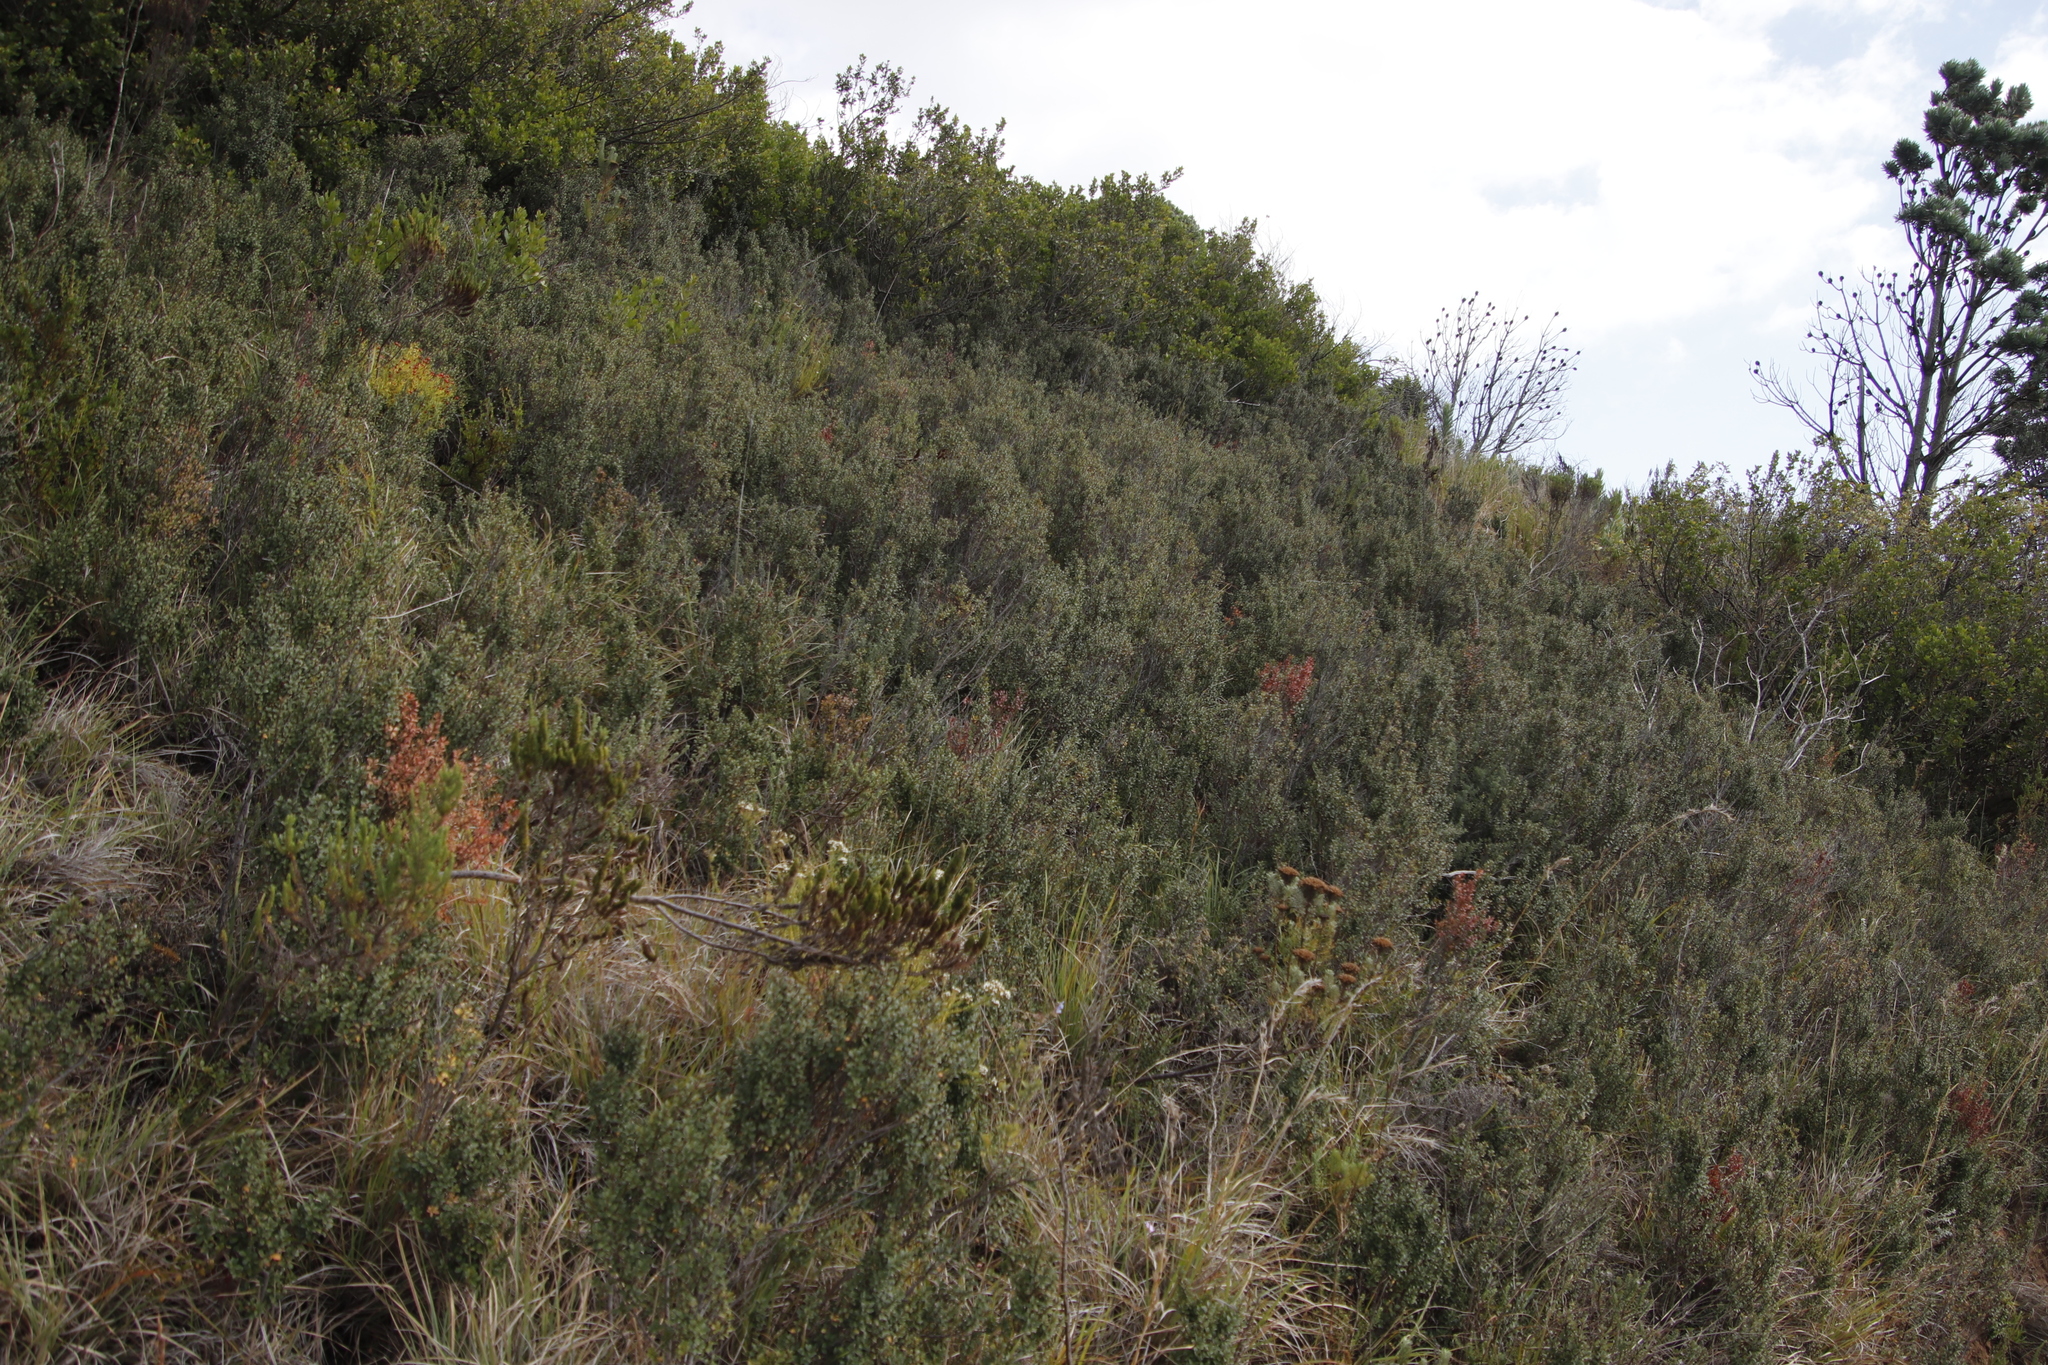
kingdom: Plantae
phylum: Tracheophyta
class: Magnoliopsida
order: Ericales
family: Primulaceae
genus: Myrsine
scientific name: Myrsine africana
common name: African-boxwood
